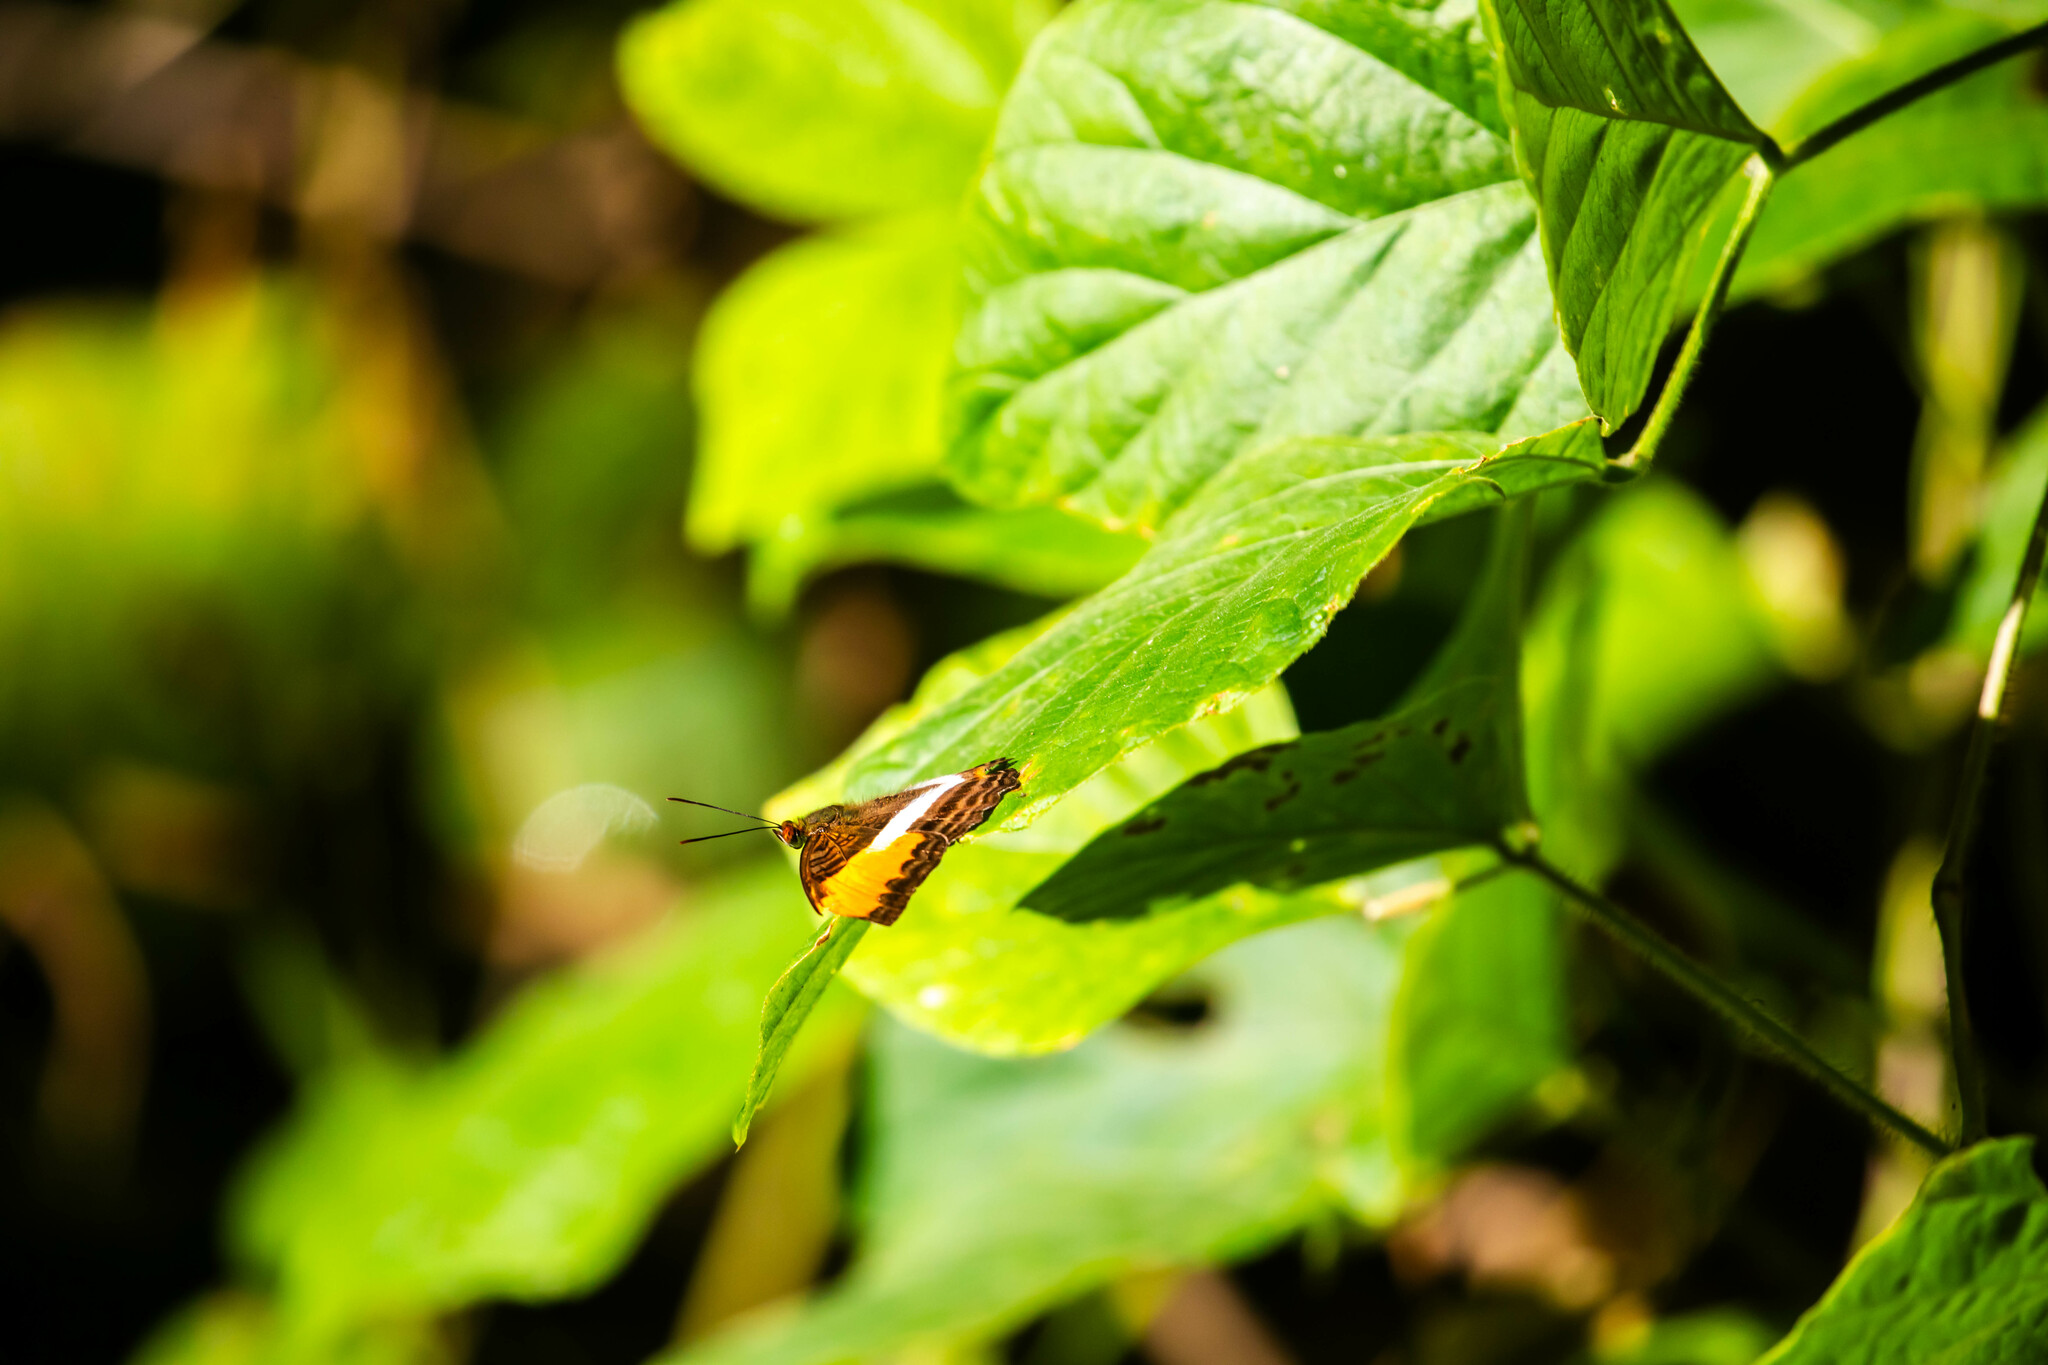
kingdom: Animalia
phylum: Arthropoda
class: Insecta
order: Lepidoptera
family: Nymphalidae
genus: Limenitis
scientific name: Limenitis cytherea
